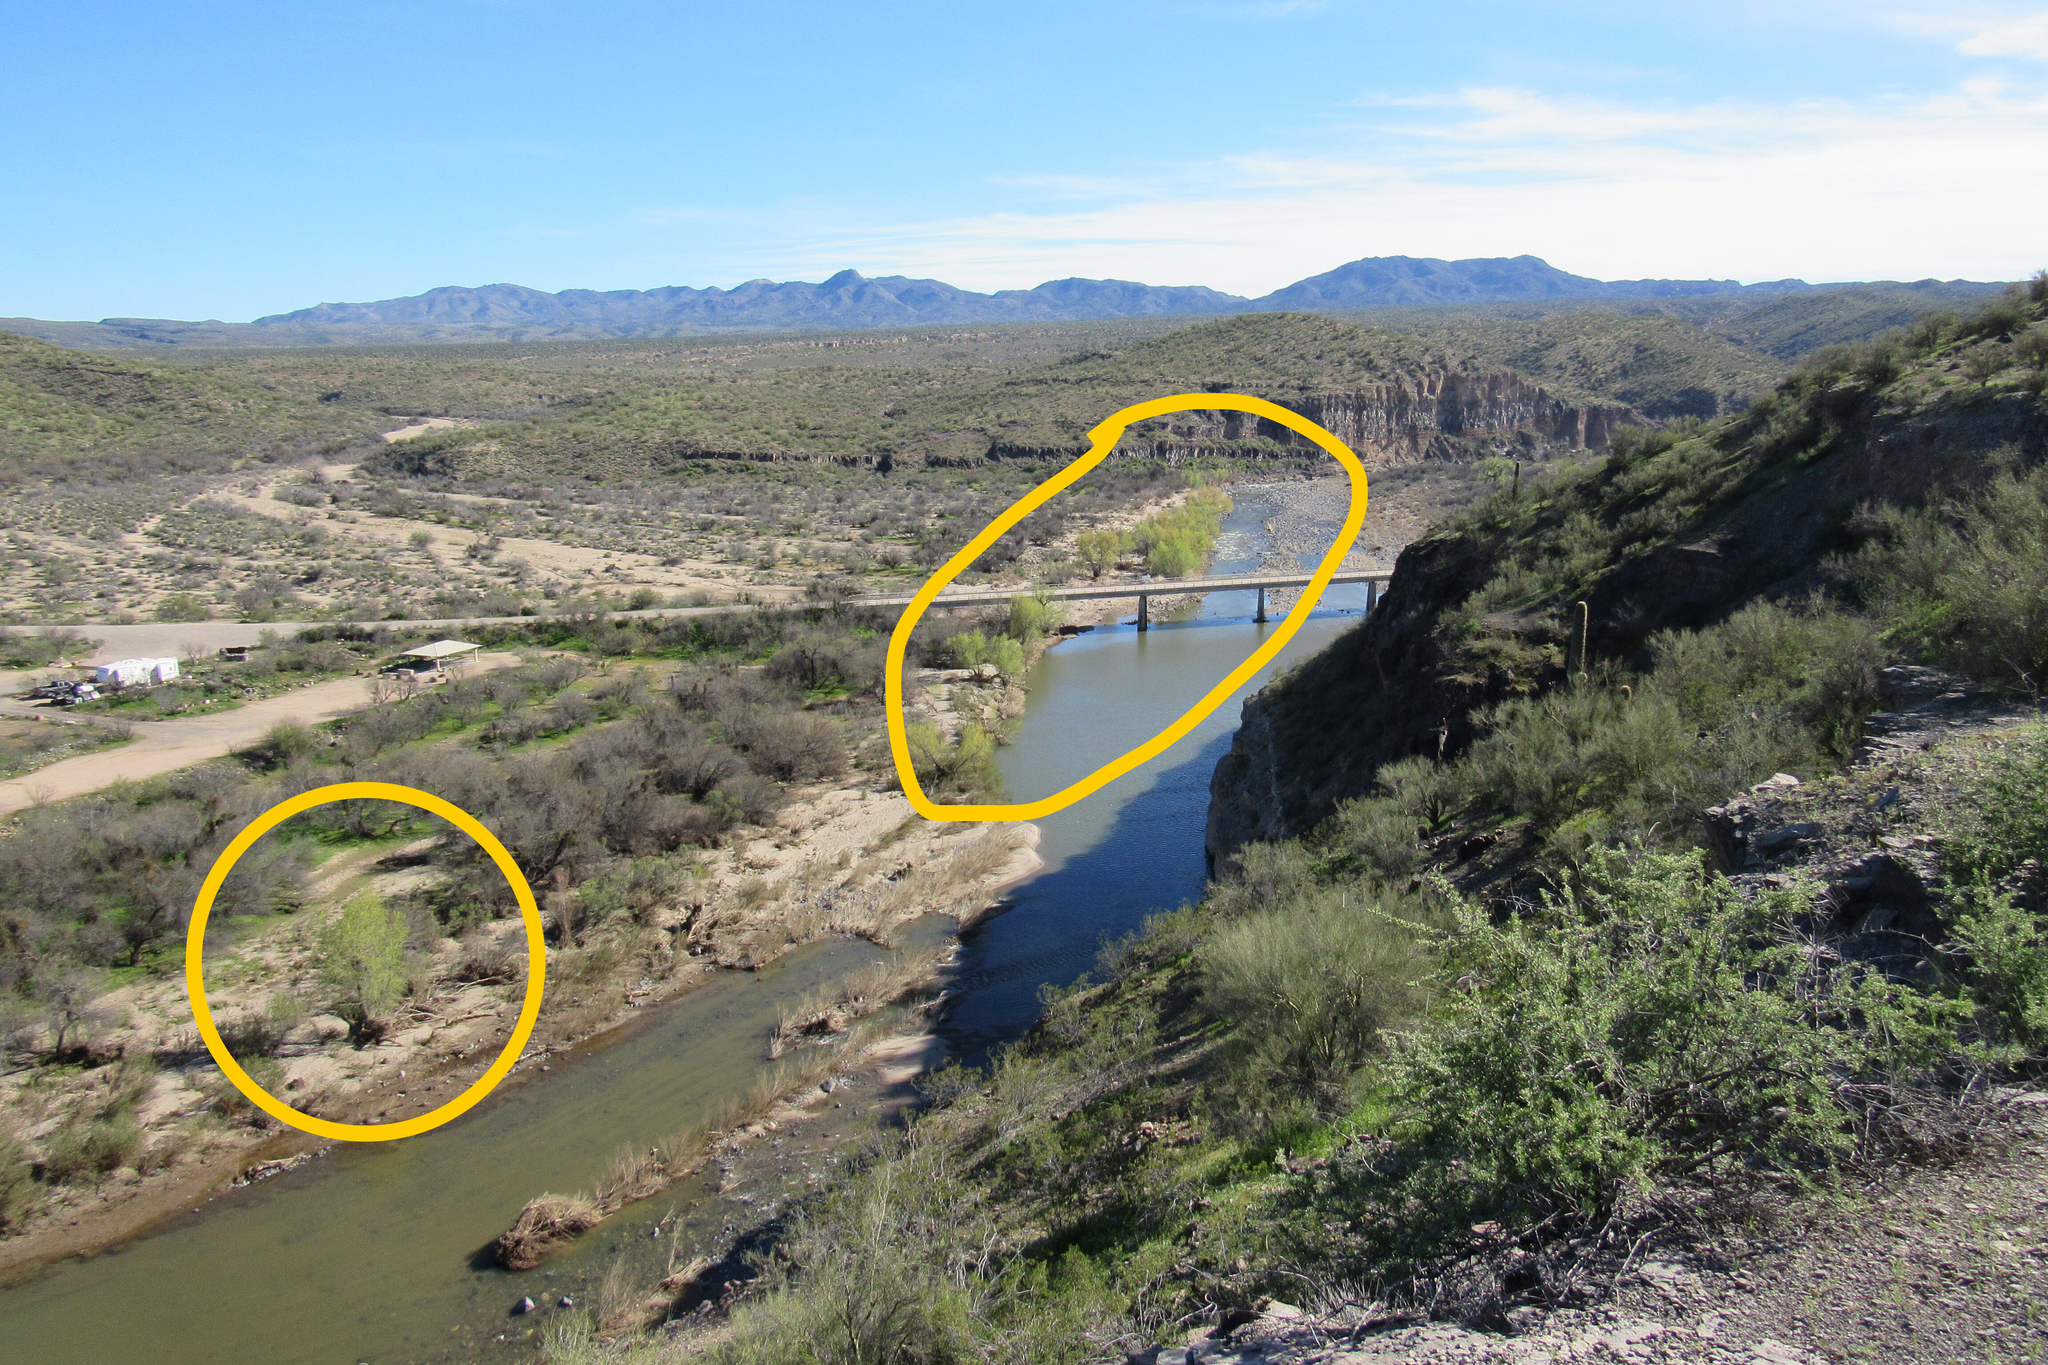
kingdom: Plantae
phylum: Tracheophyta
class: Magnoliopsida
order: Malpighiales
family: Salicaceae
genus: Salix
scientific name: Salix gooddingii
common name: Goodding's willow
